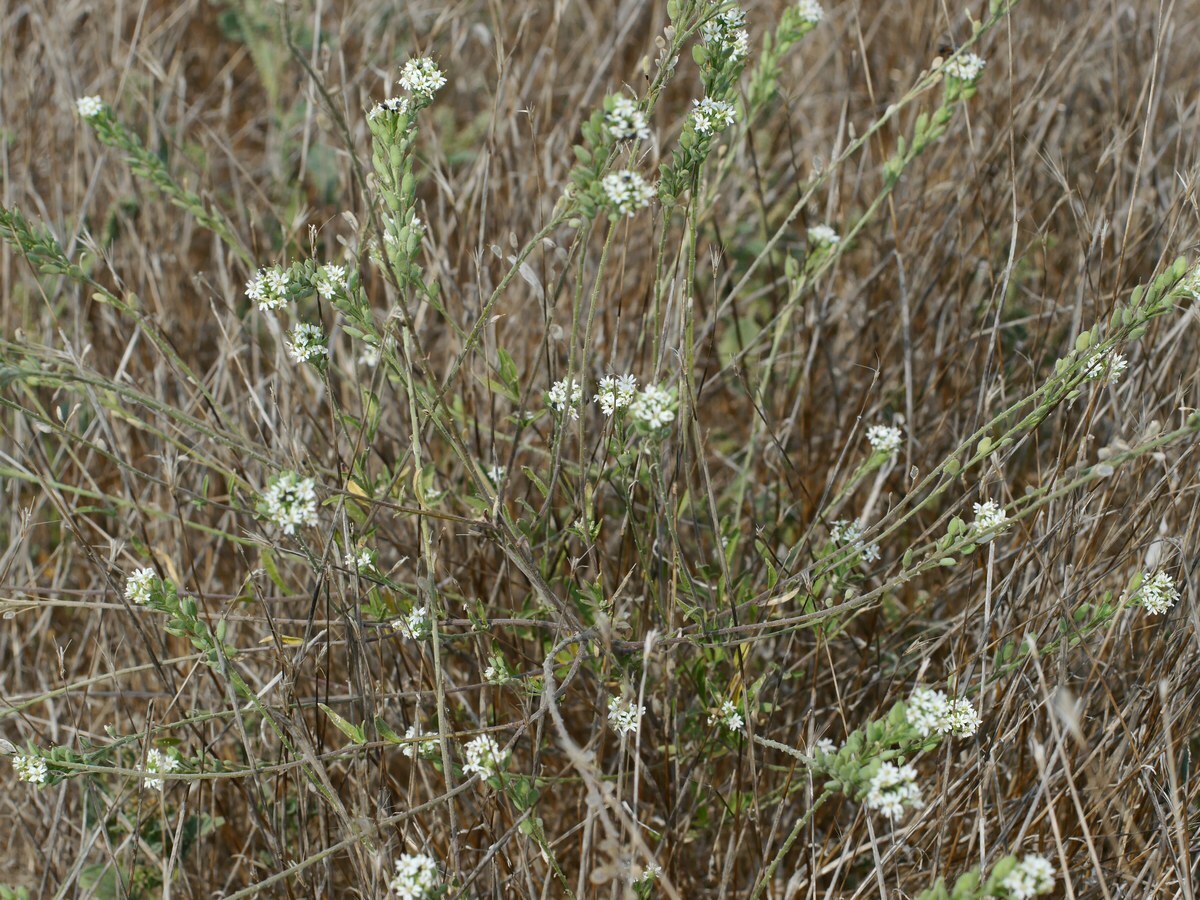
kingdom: Plantae
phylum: Tracheophyta
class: Magnoliopsida
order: Brassicales
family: Brassicaceae
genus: Berteroa
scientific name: Berteroa incana
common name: Hoary alison
